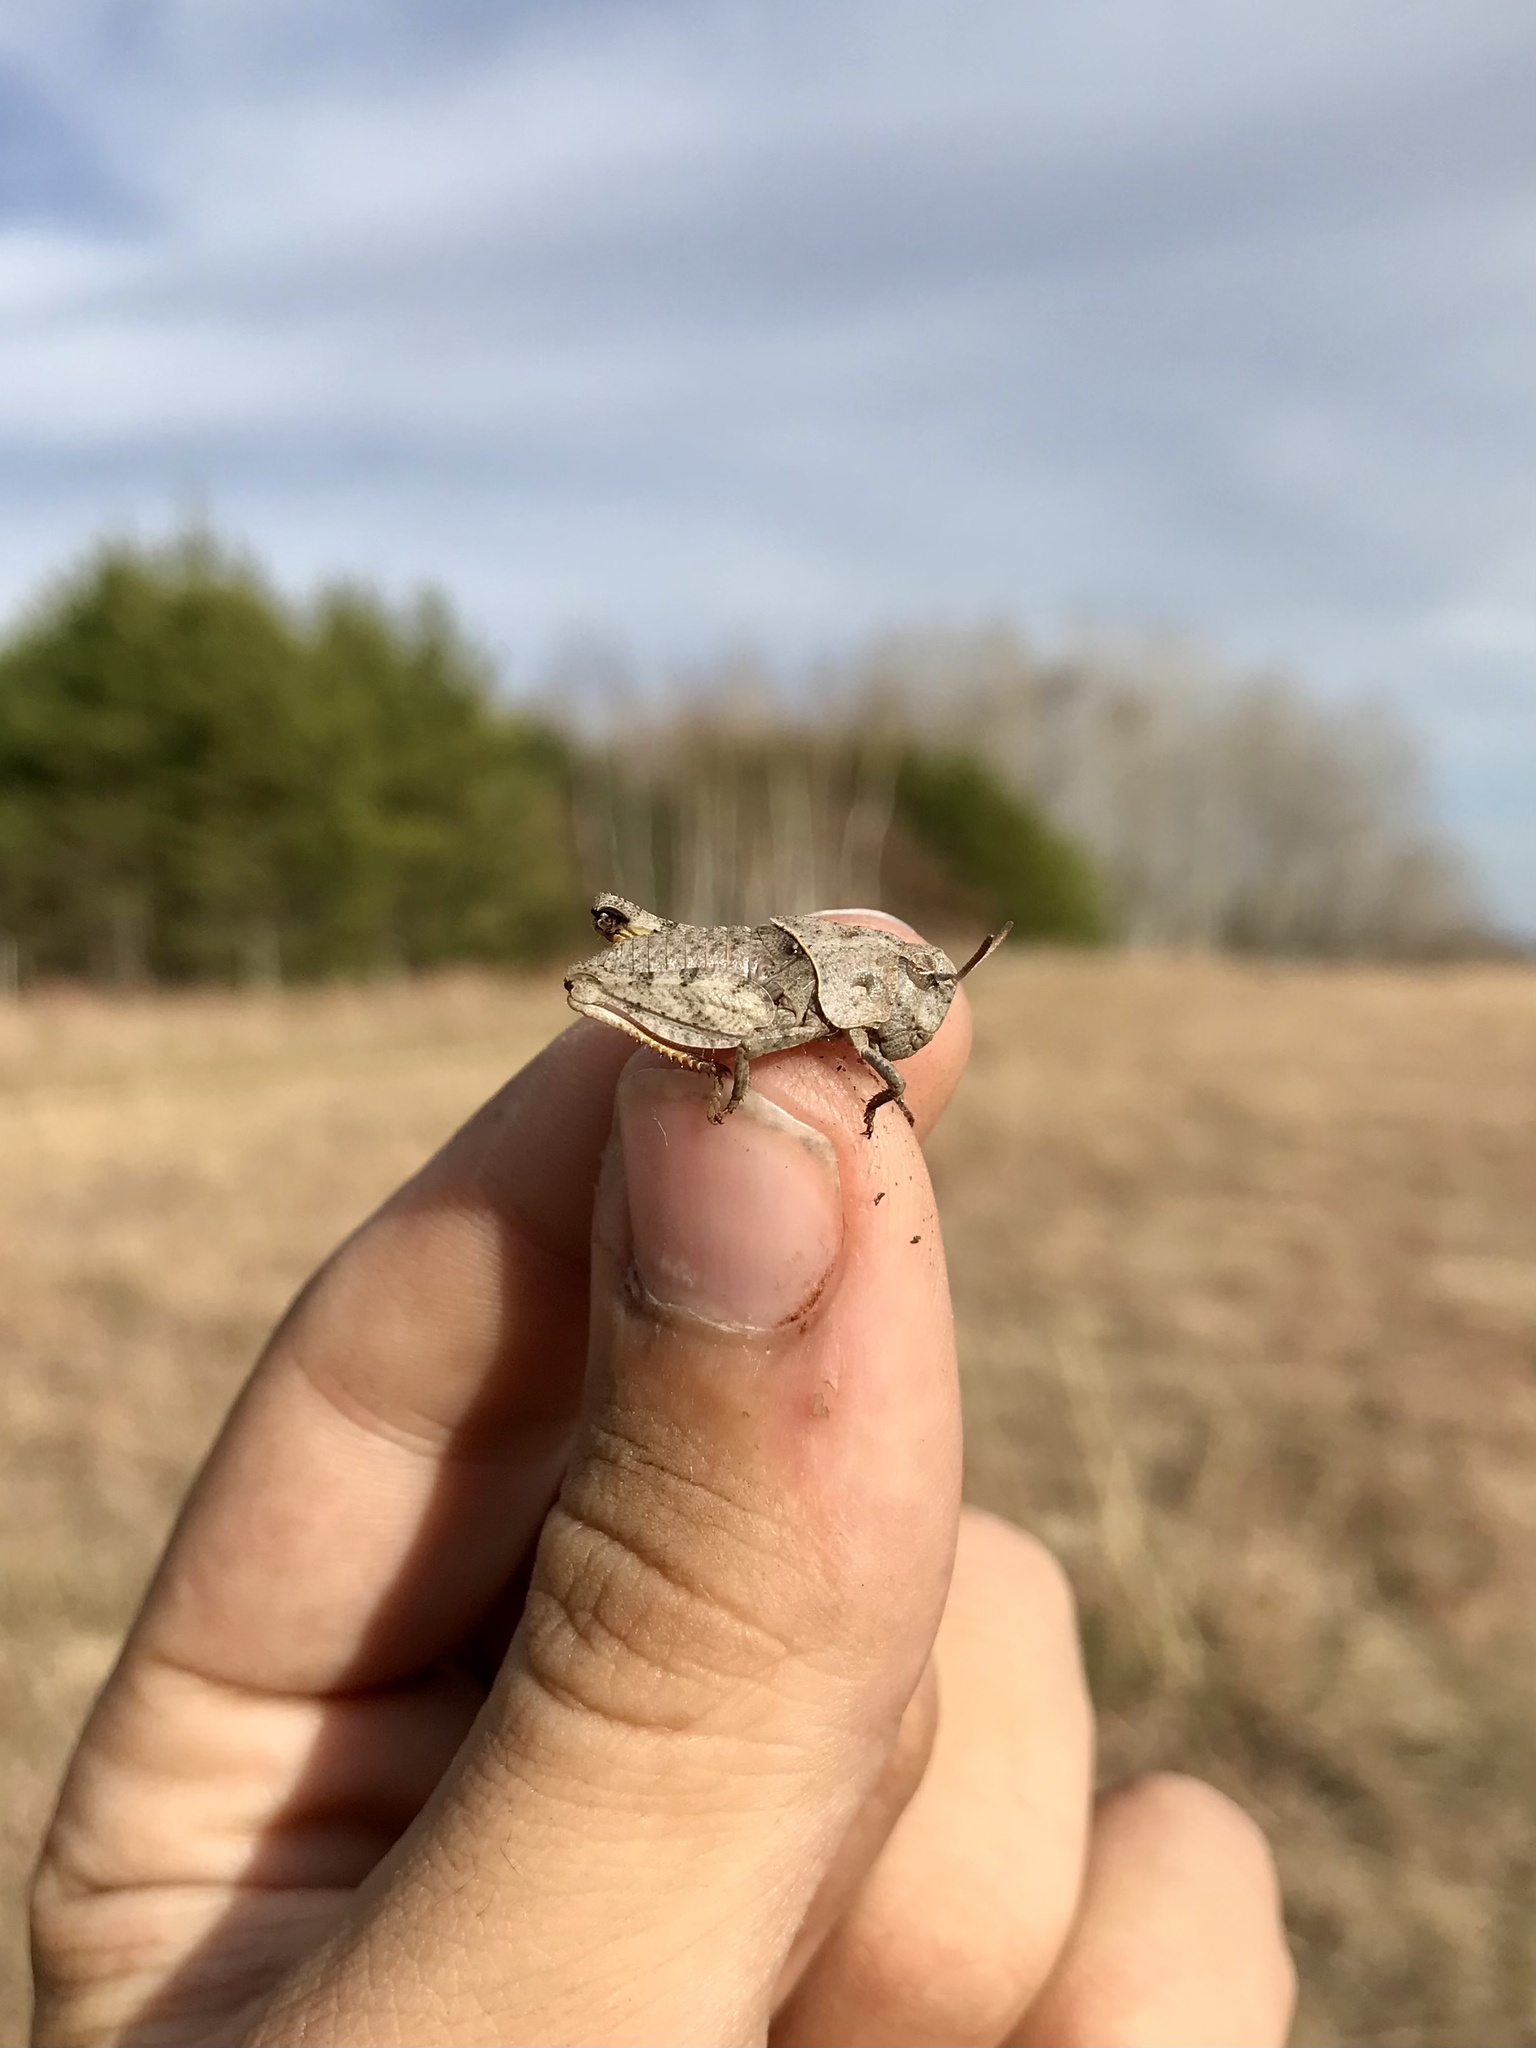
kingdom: Animalia
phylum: Arthropoda
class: Insecta
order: Orthoptera
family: Acrididae
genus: Pardalophora
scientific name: Pardalophora apiculata
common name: Coral-winged locust
